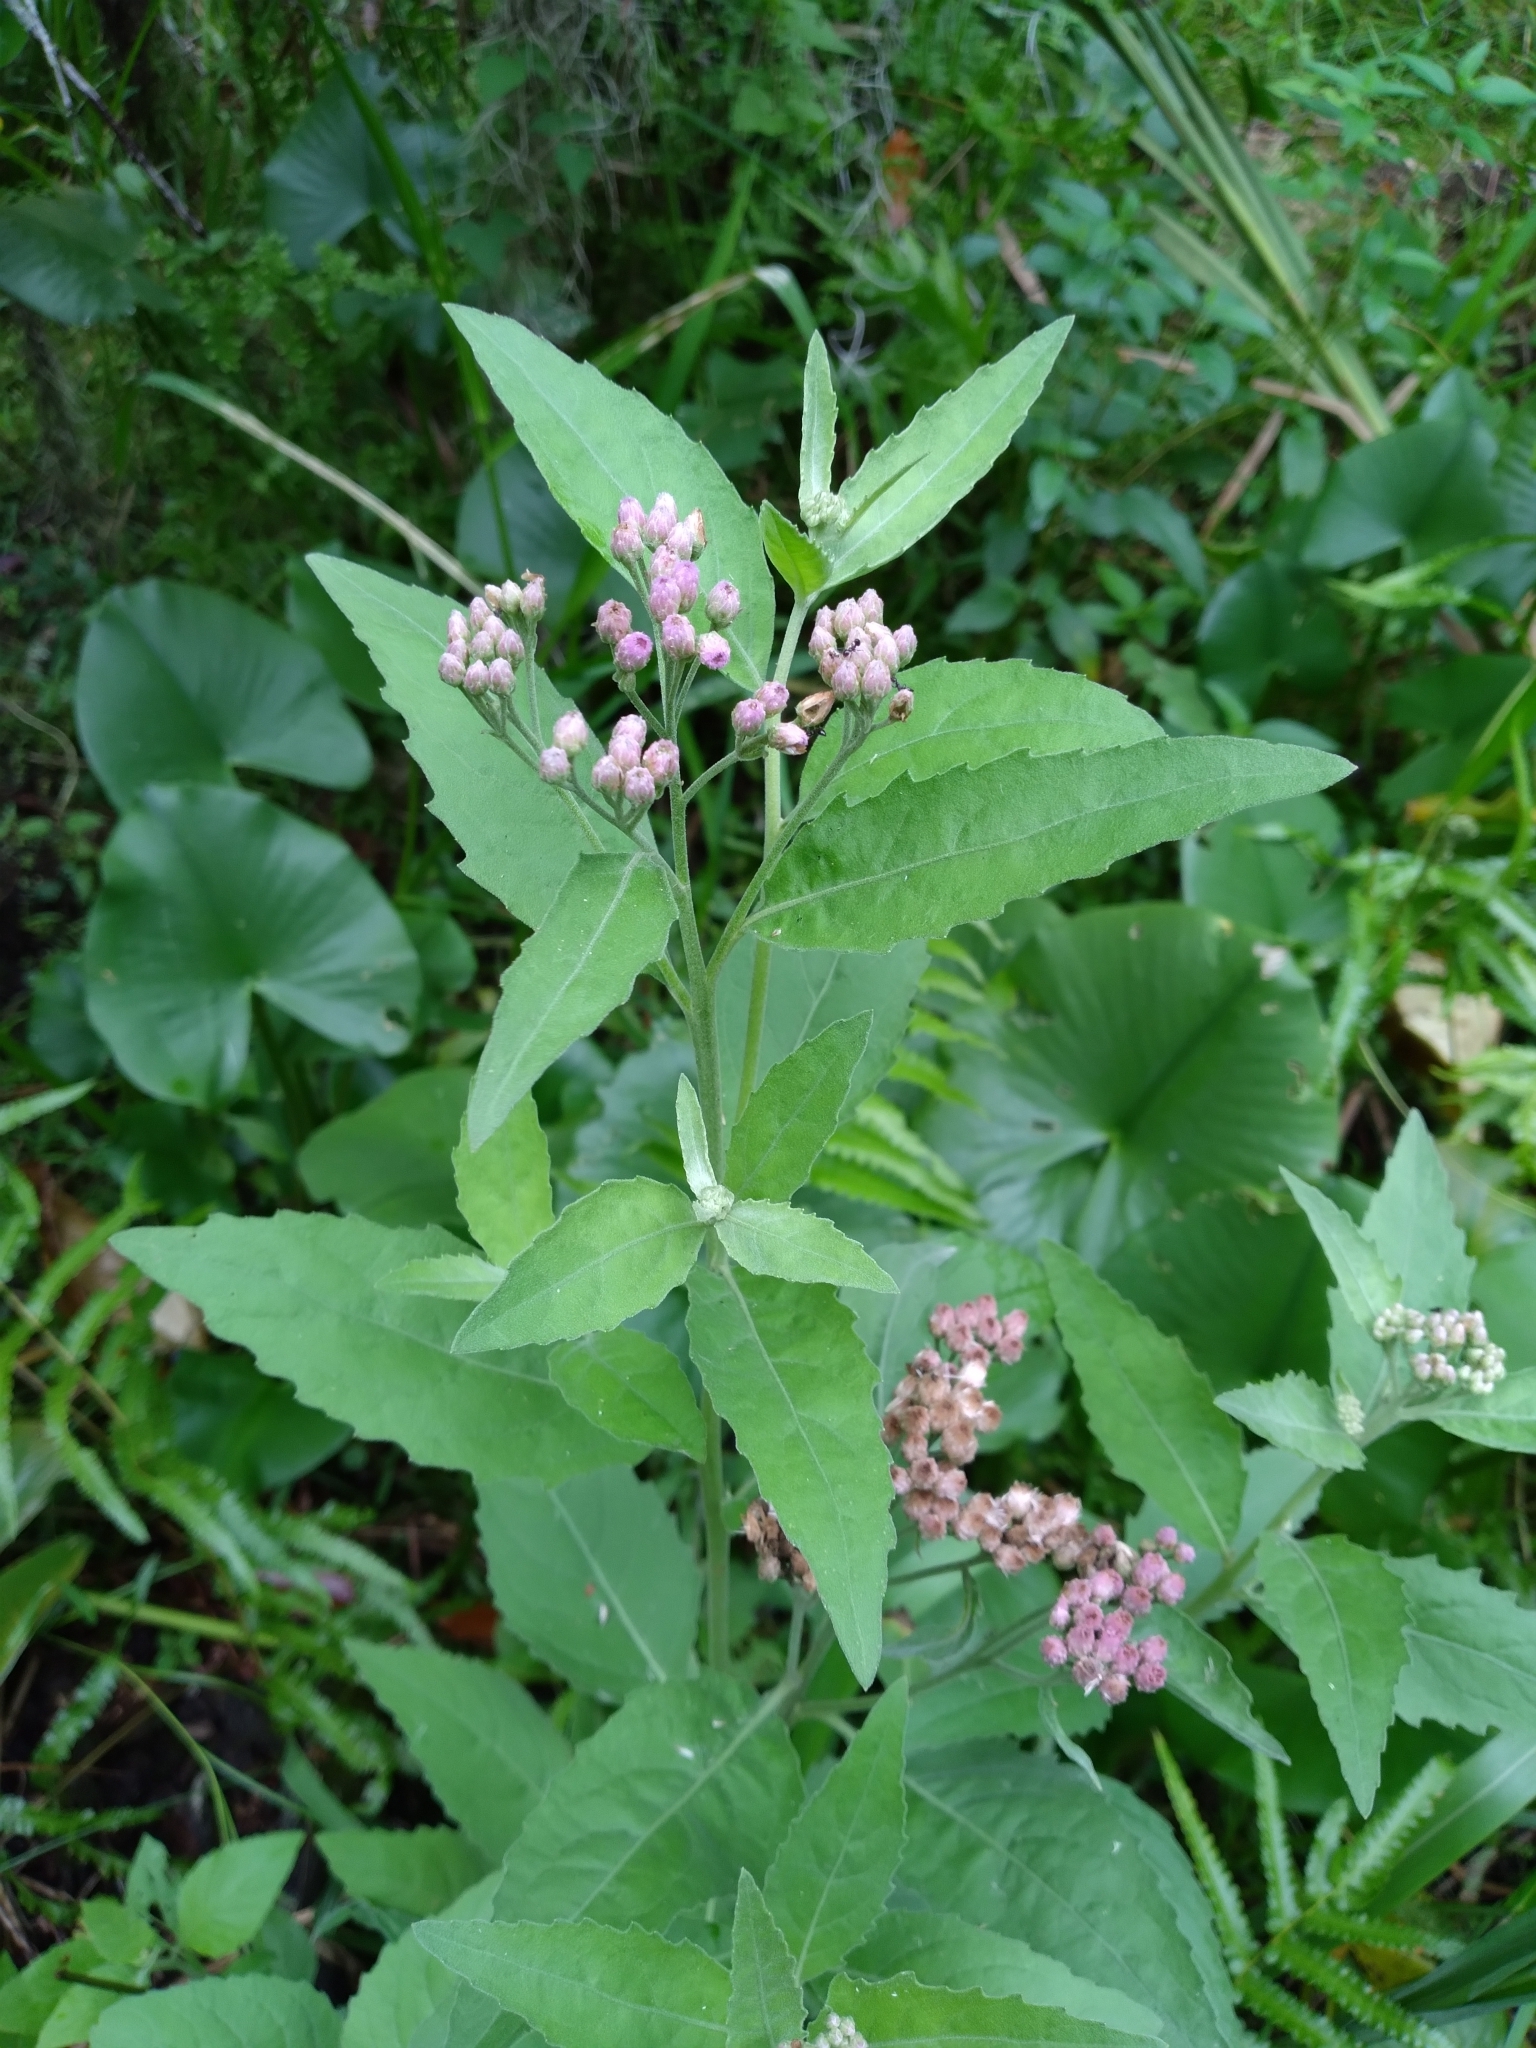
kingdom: Plantae
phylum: Tracheophyta
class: Magnoliopsida
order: Asterales
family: Asteraceae
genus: Pluchea
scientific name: Pluchea odorata
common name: Saltmarsh fleabane
